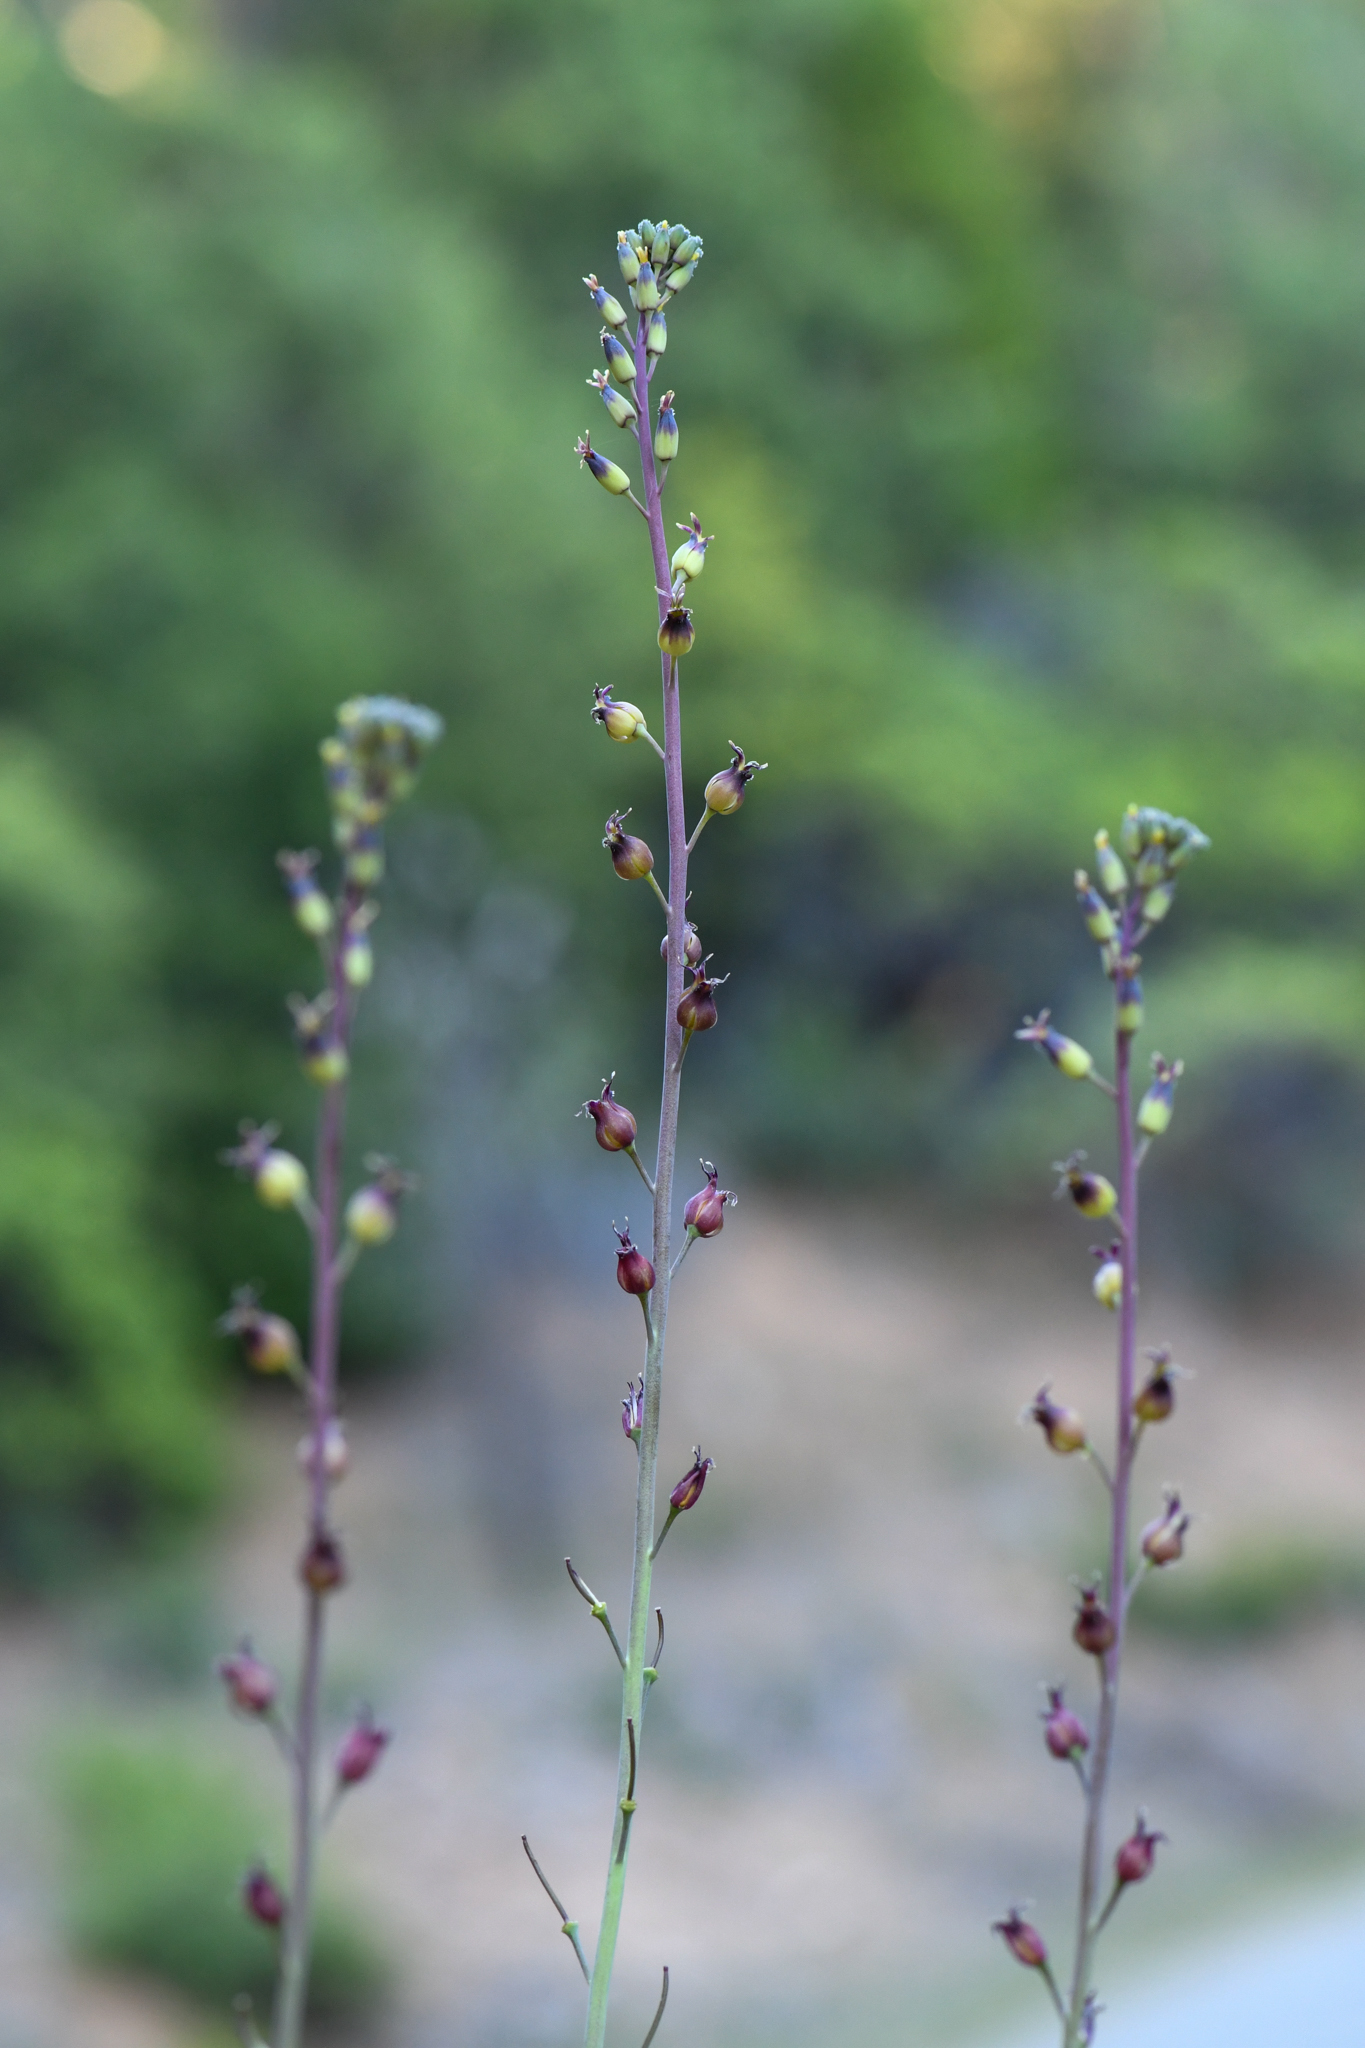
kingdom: Plantae
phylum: Tracheophyta
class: Magnoliopsida
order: Brassicales
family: Brassicaceae
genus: Streptanthus
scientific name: Streptanthus longisiliquus
